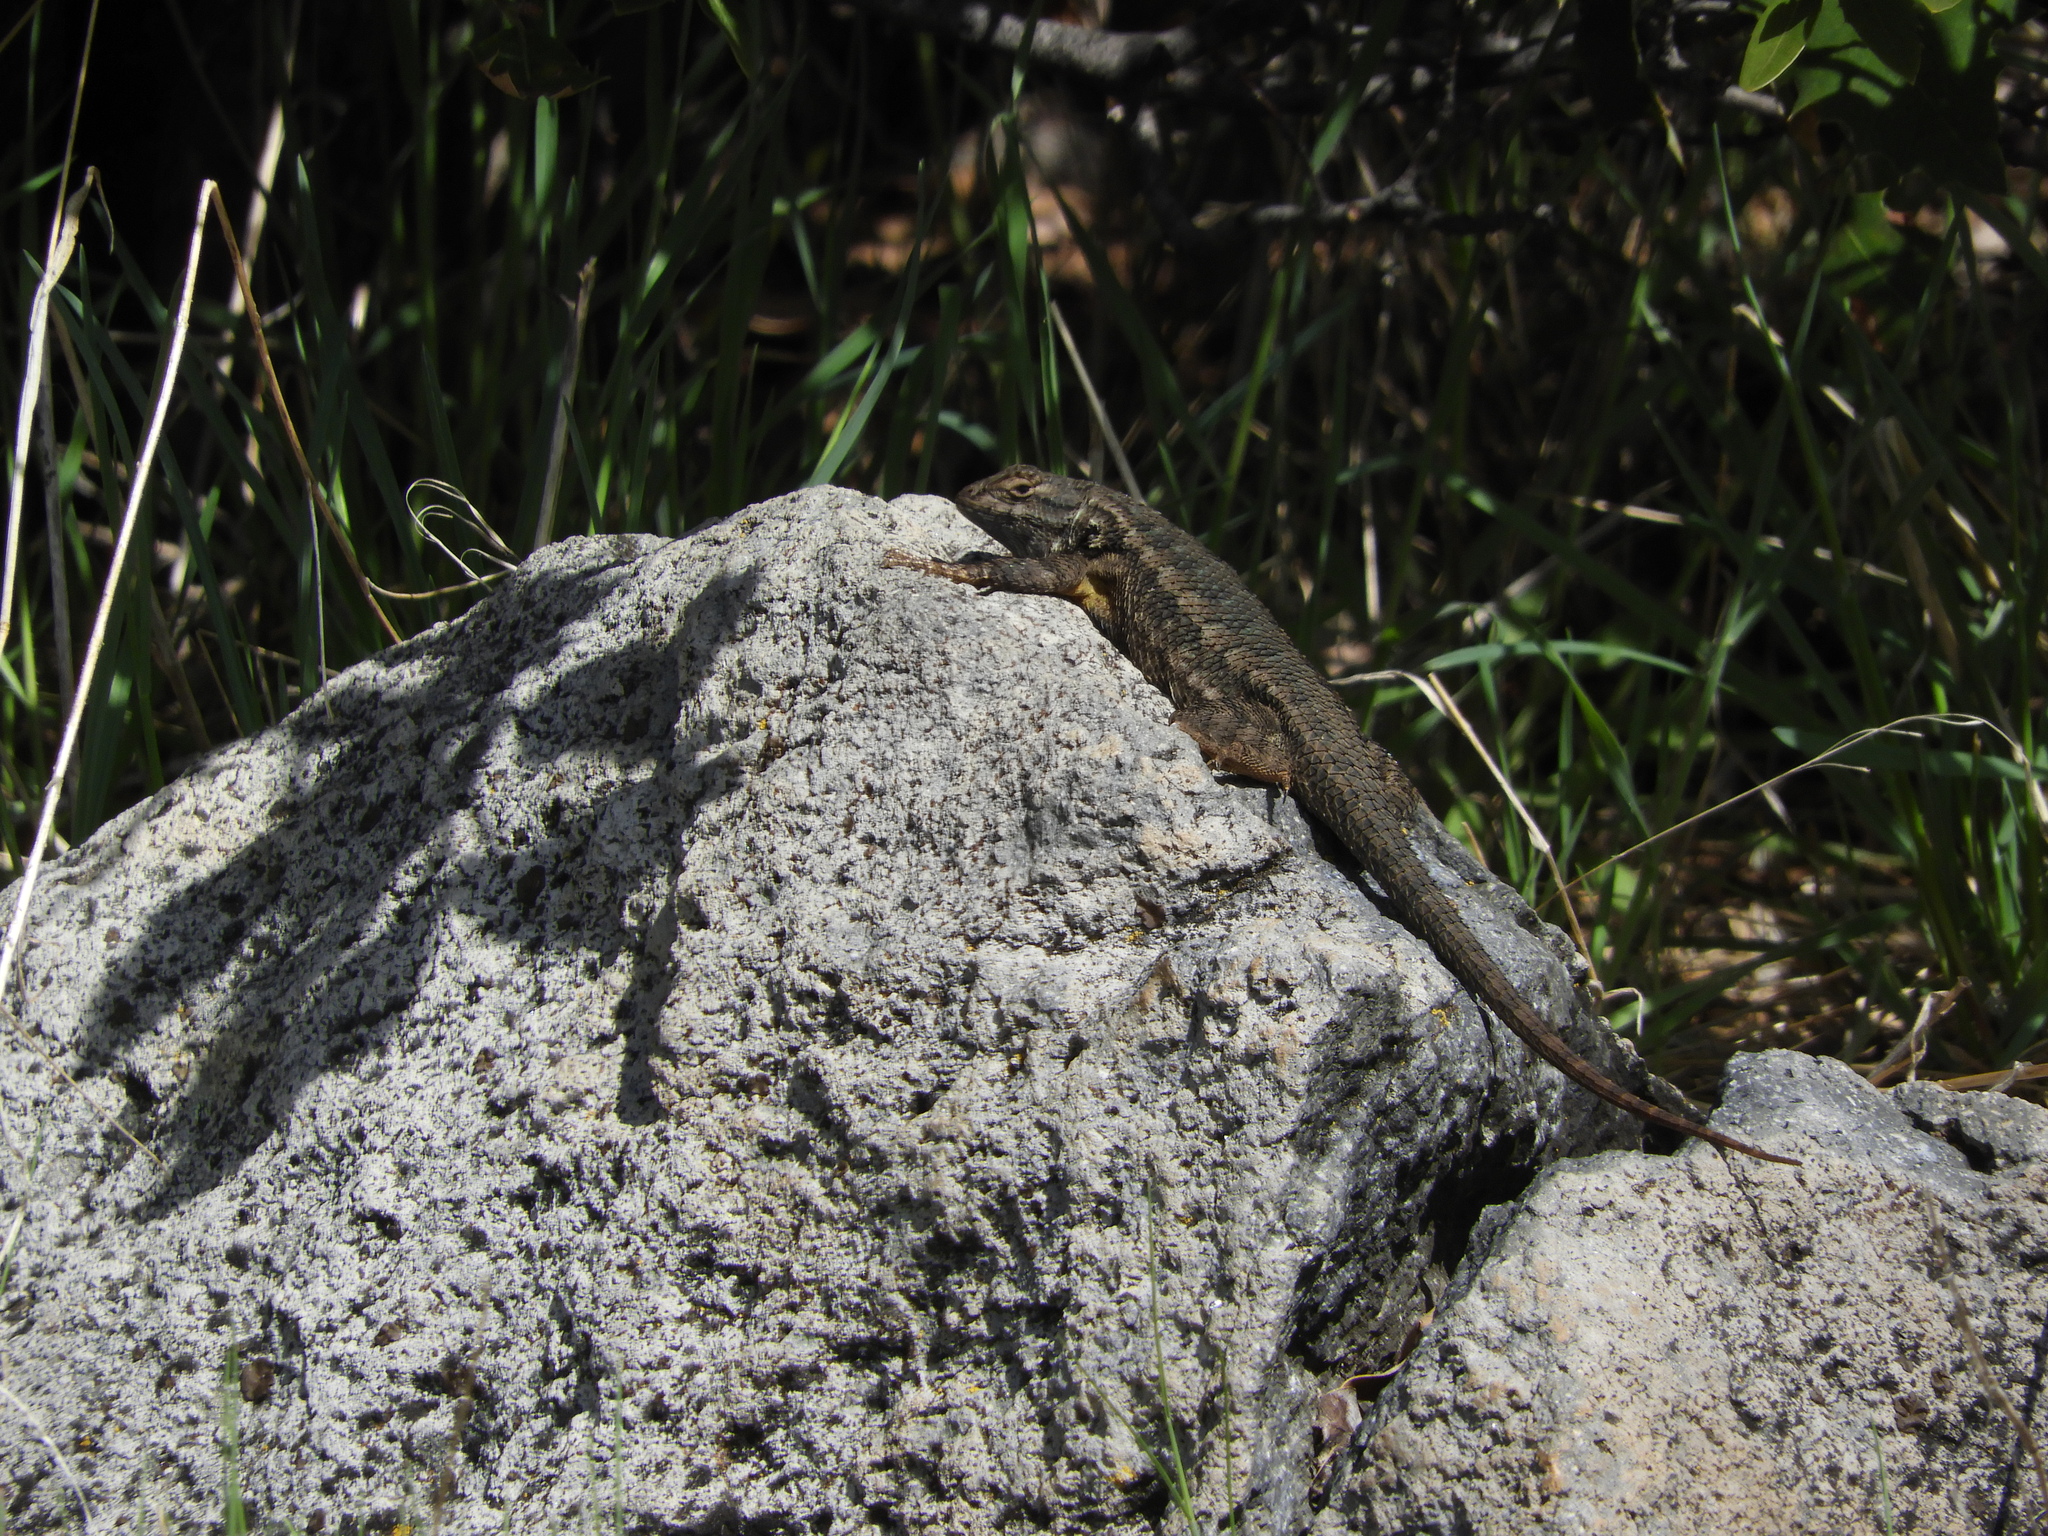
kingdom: Animalia
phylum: Chordata
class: Squamata
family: Phrynosomatidae
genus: Sceloporus
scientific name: Sceloporus occidentalis
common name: Western fence lizard
